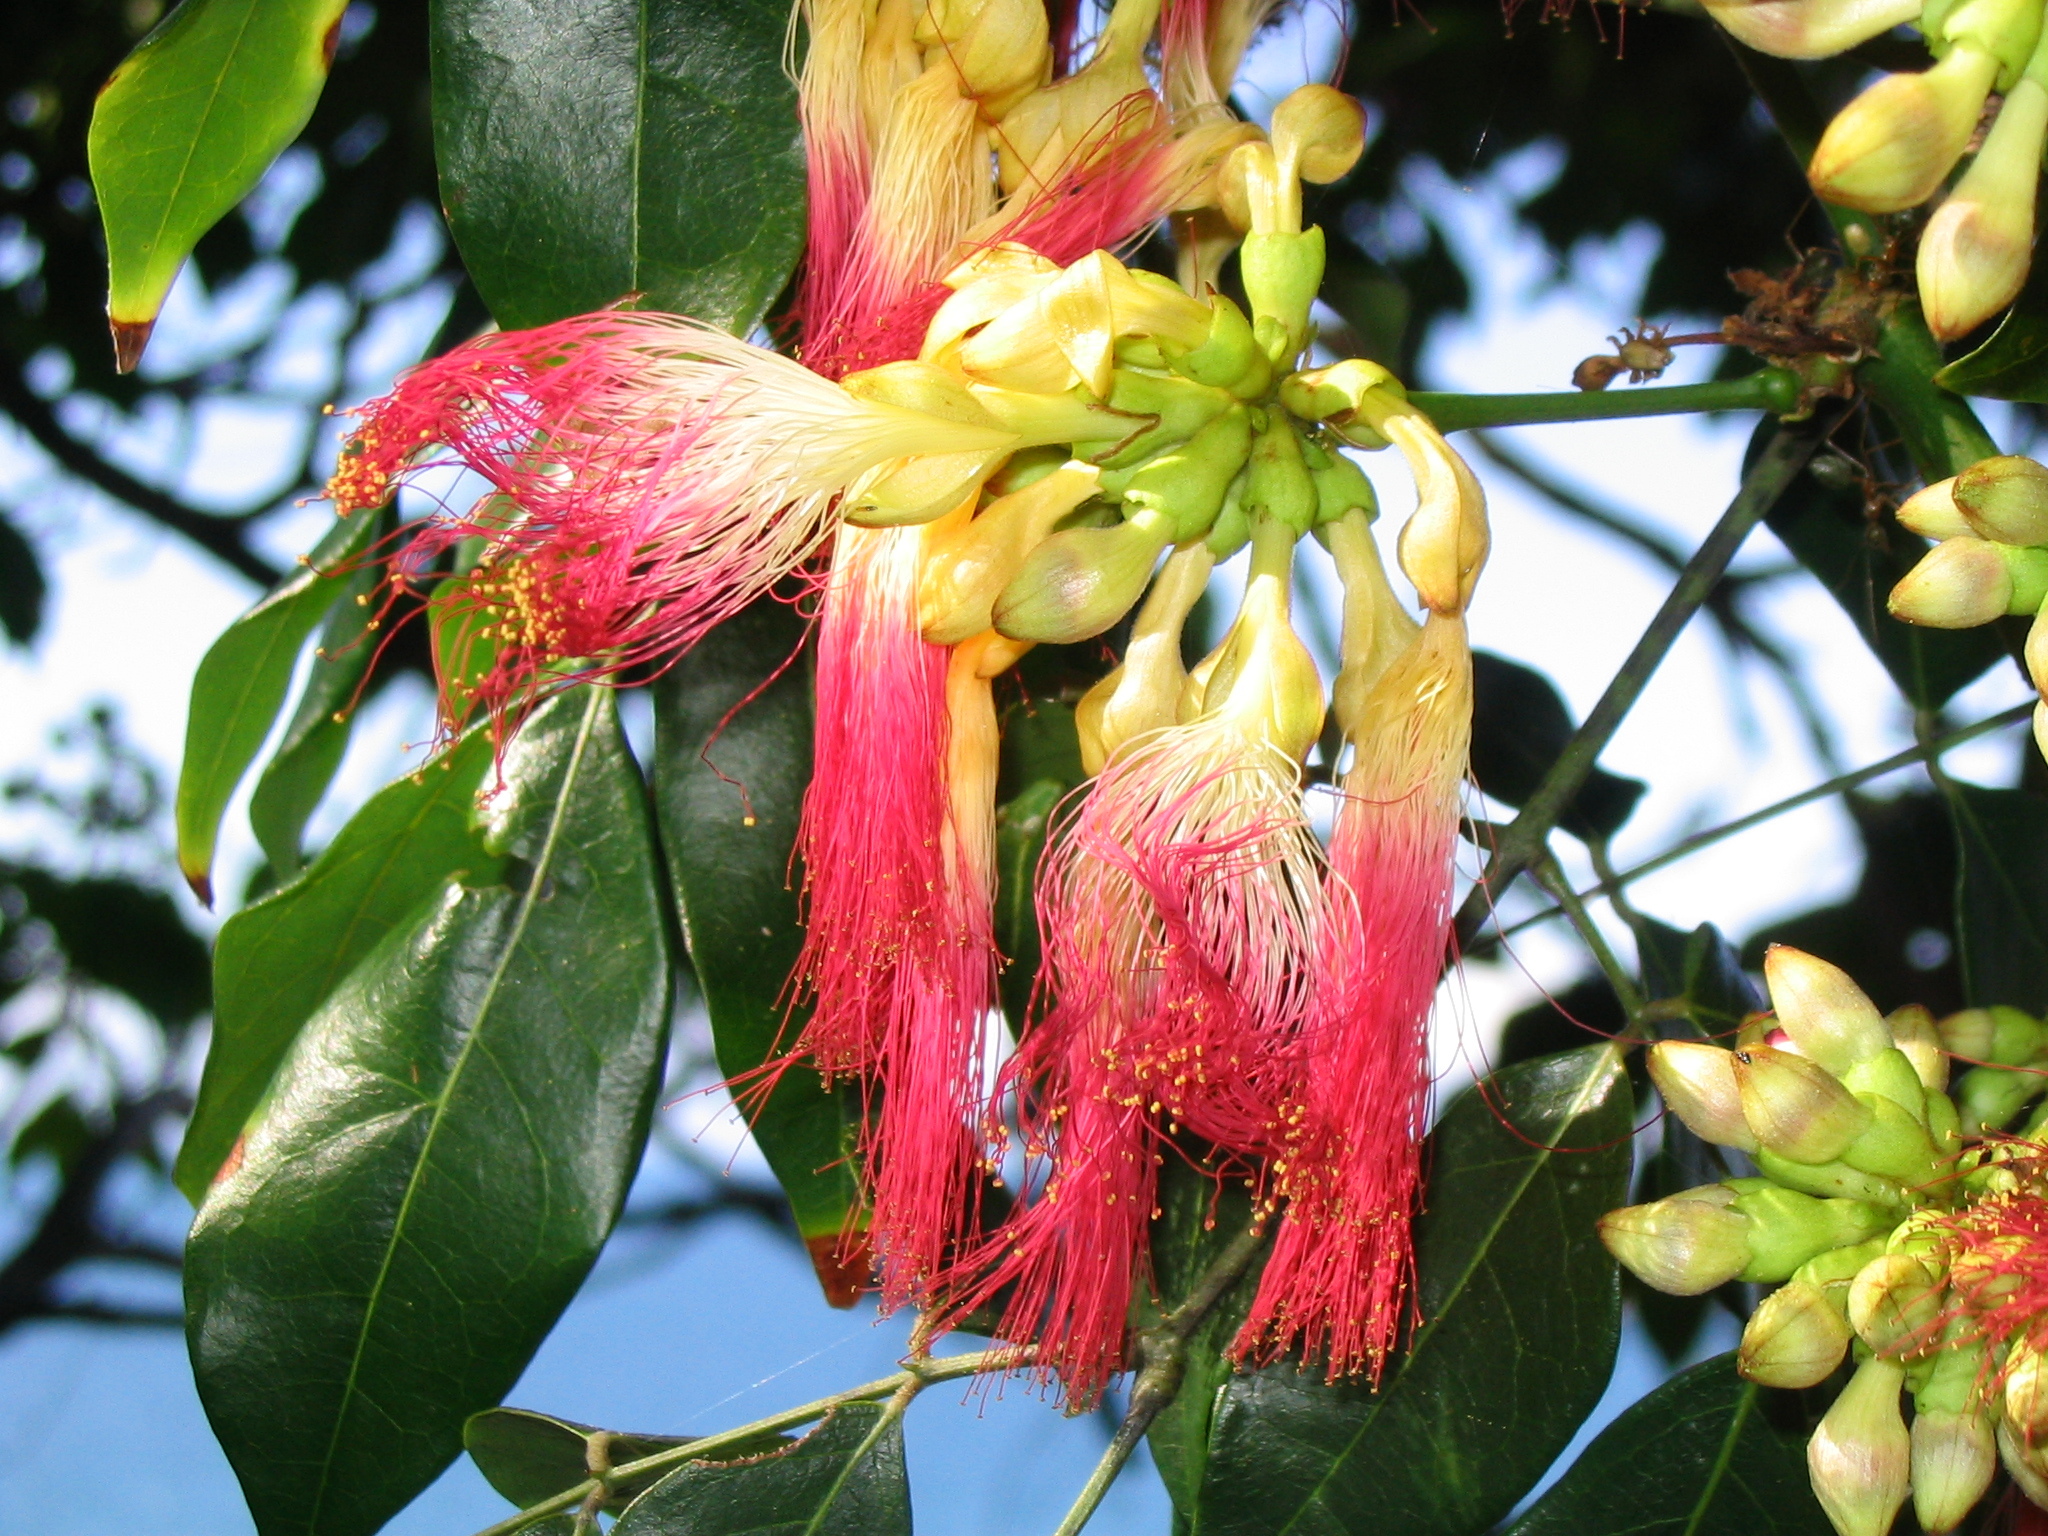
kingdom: Plantae
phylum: Tracheophyta
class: Magnoliopsida
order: Fabales
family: Fabaceae
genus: Archidendron
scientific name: Archidendron grandiflorum
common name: Tulip siris
